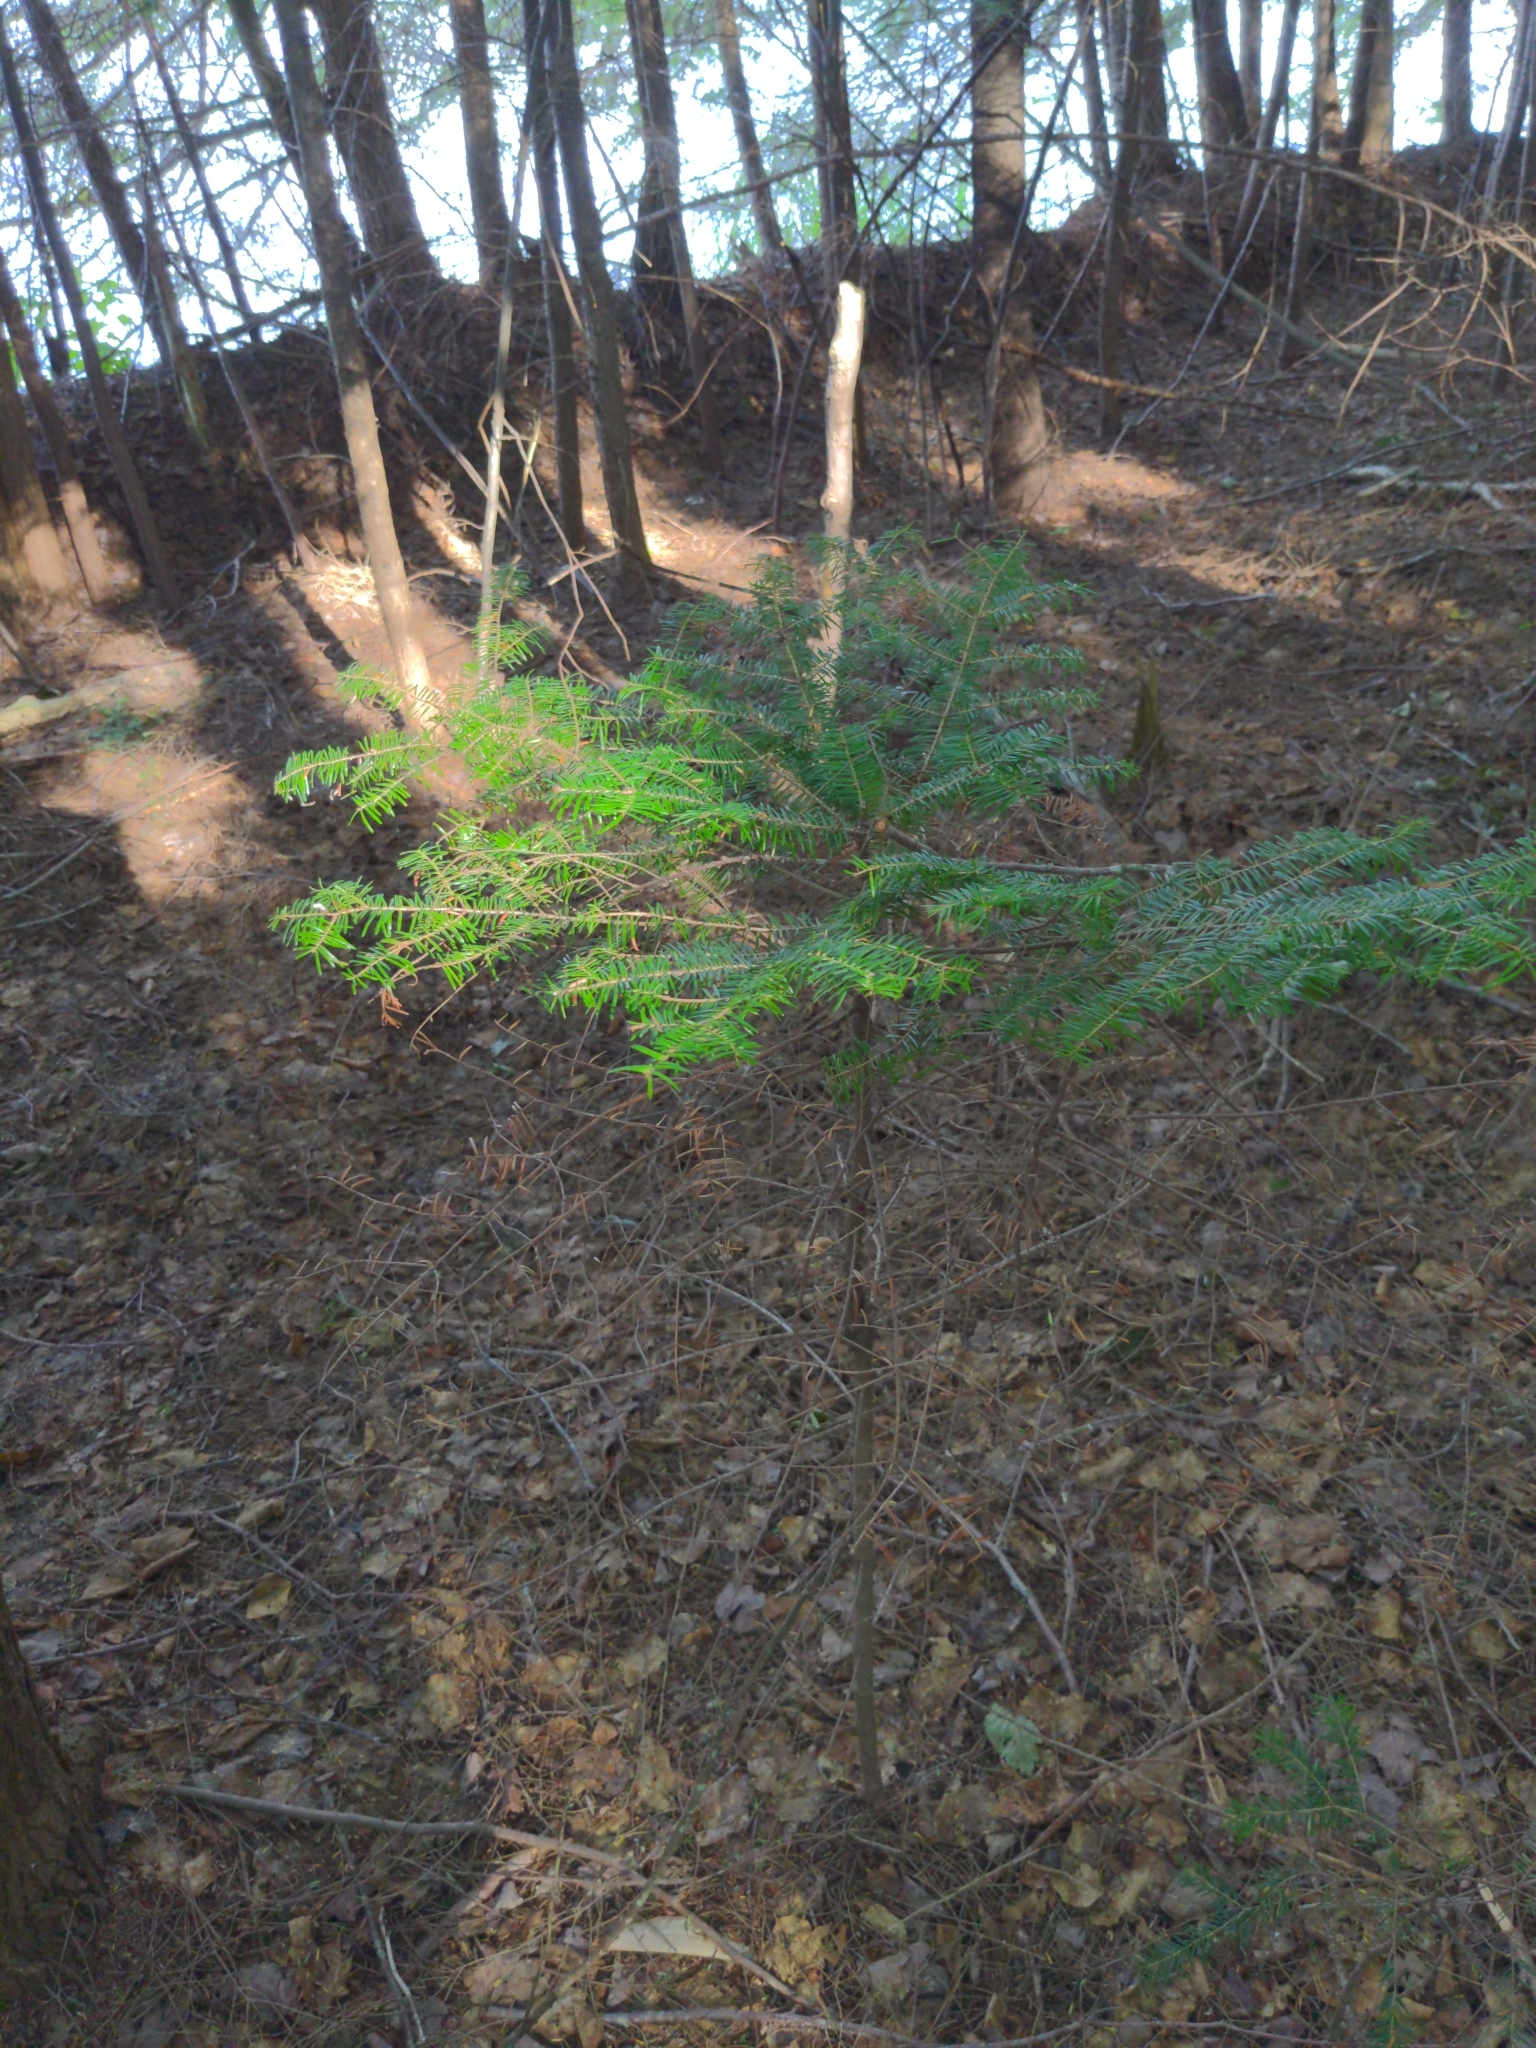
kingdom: Plantae
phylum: Tracheophyta
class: Pinopsida
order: Pinales
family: Pinaceae
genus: Abies
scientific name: Abies balsamea
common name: Balsam fir
